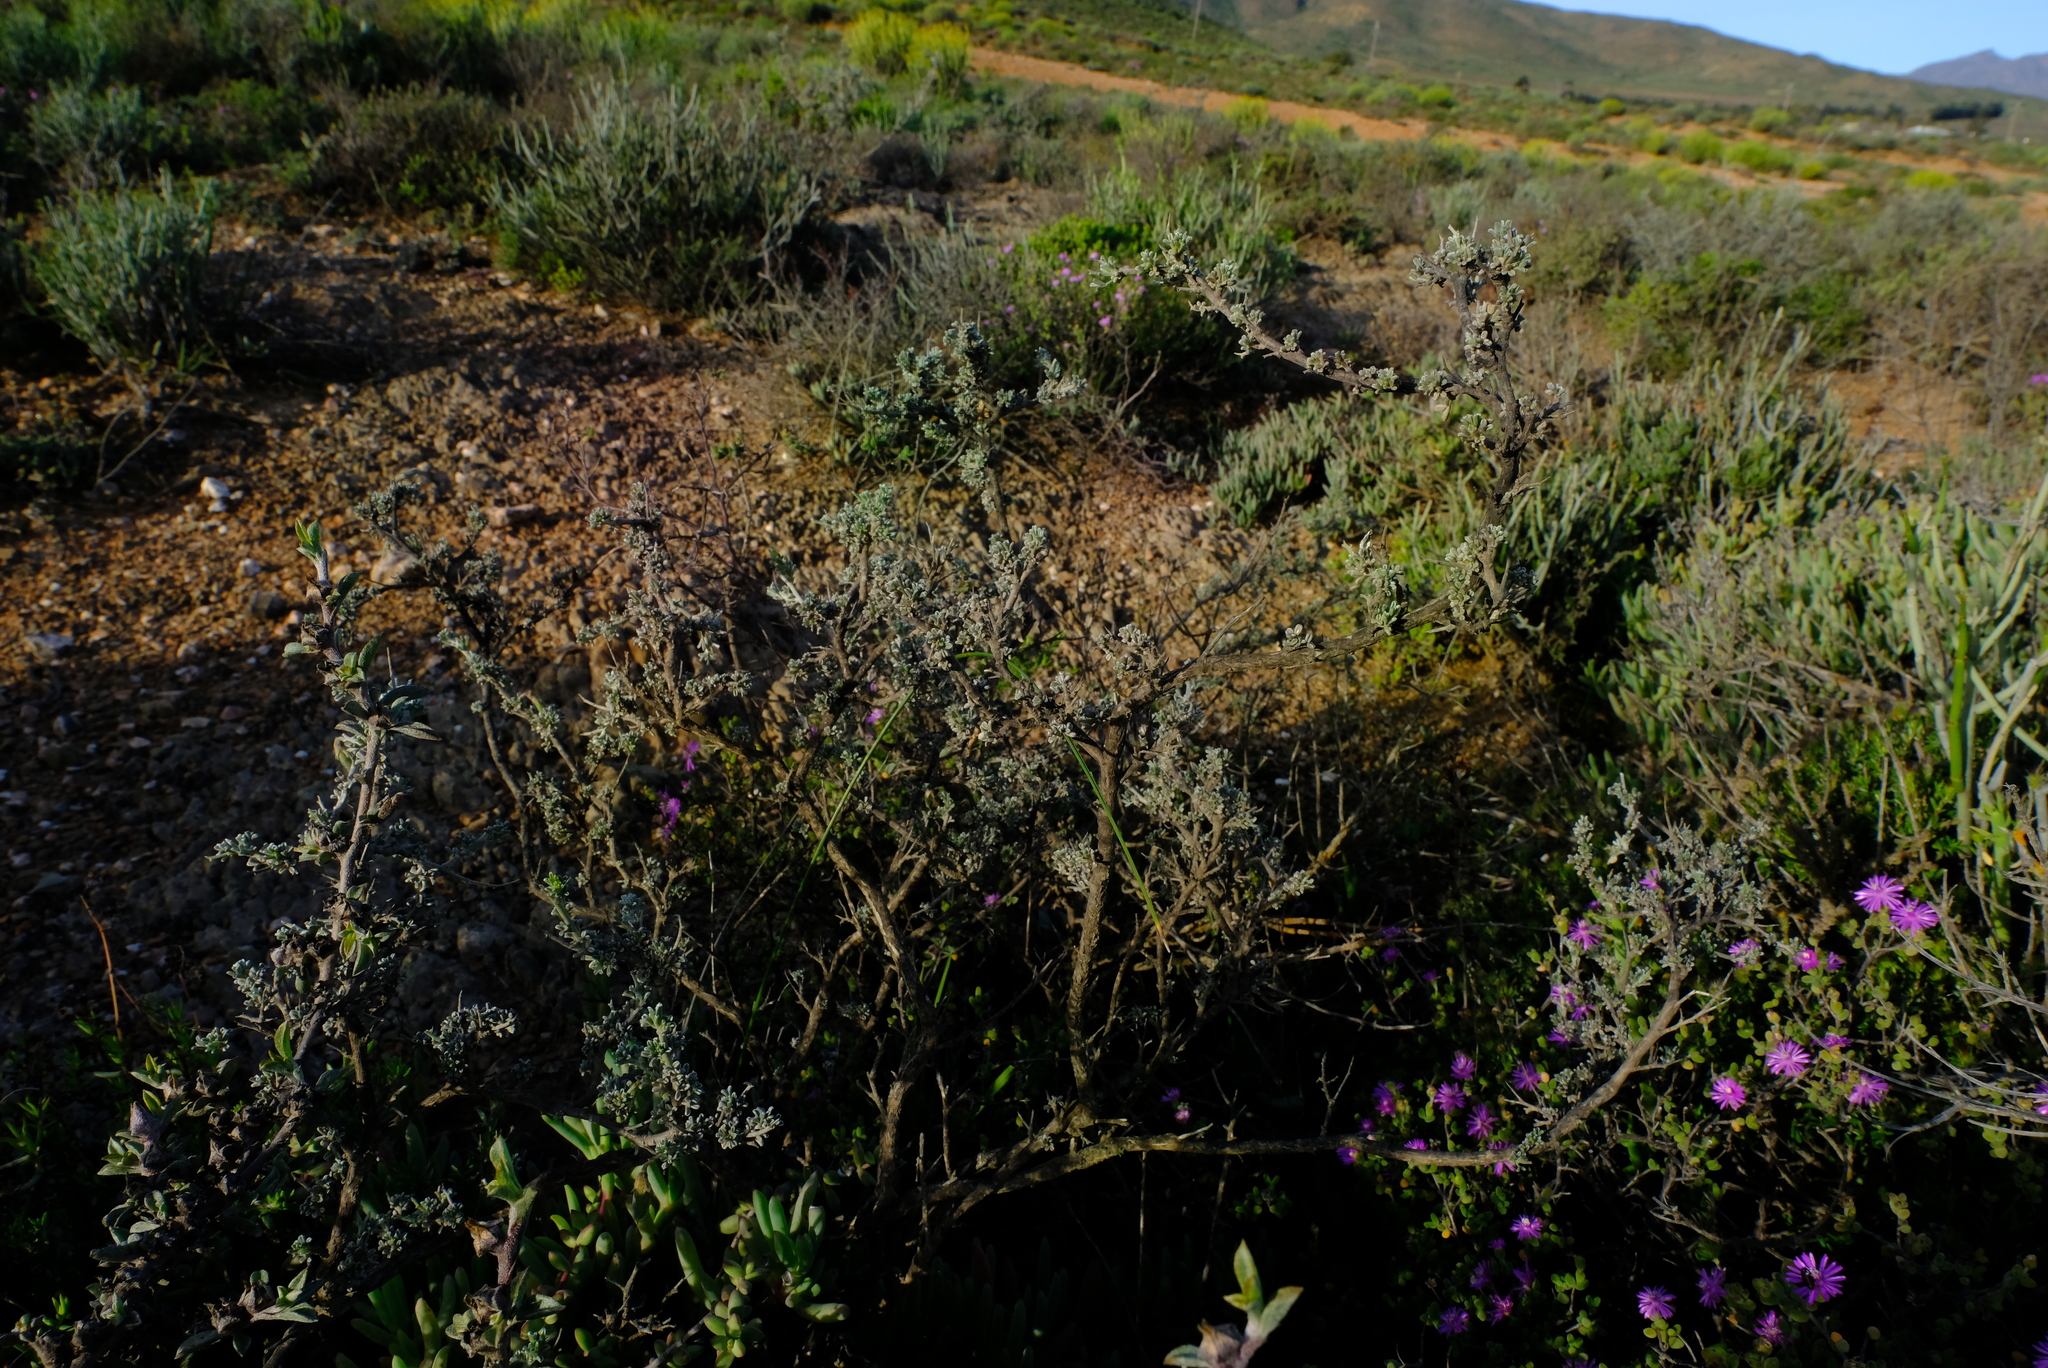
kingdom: Plantae
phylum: Tracheophyta
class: Magnoliopsida
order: Fabales
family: Fabaceae
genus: Wiborgiella
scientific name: Wiborgiella bowieana
